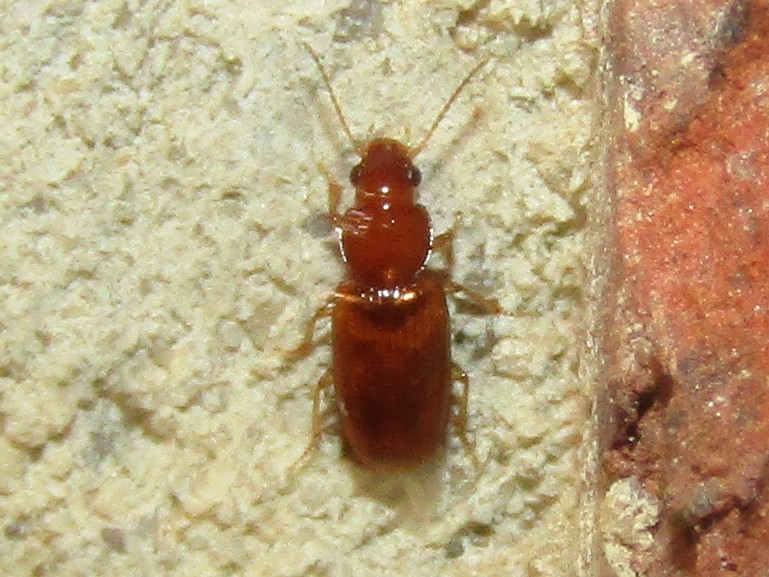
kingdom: Animalia
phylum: Arthropoda
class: Insecta
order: Coleoptera
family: Carabidae
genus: Acupalpus
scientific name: Acupalpus testaceus
